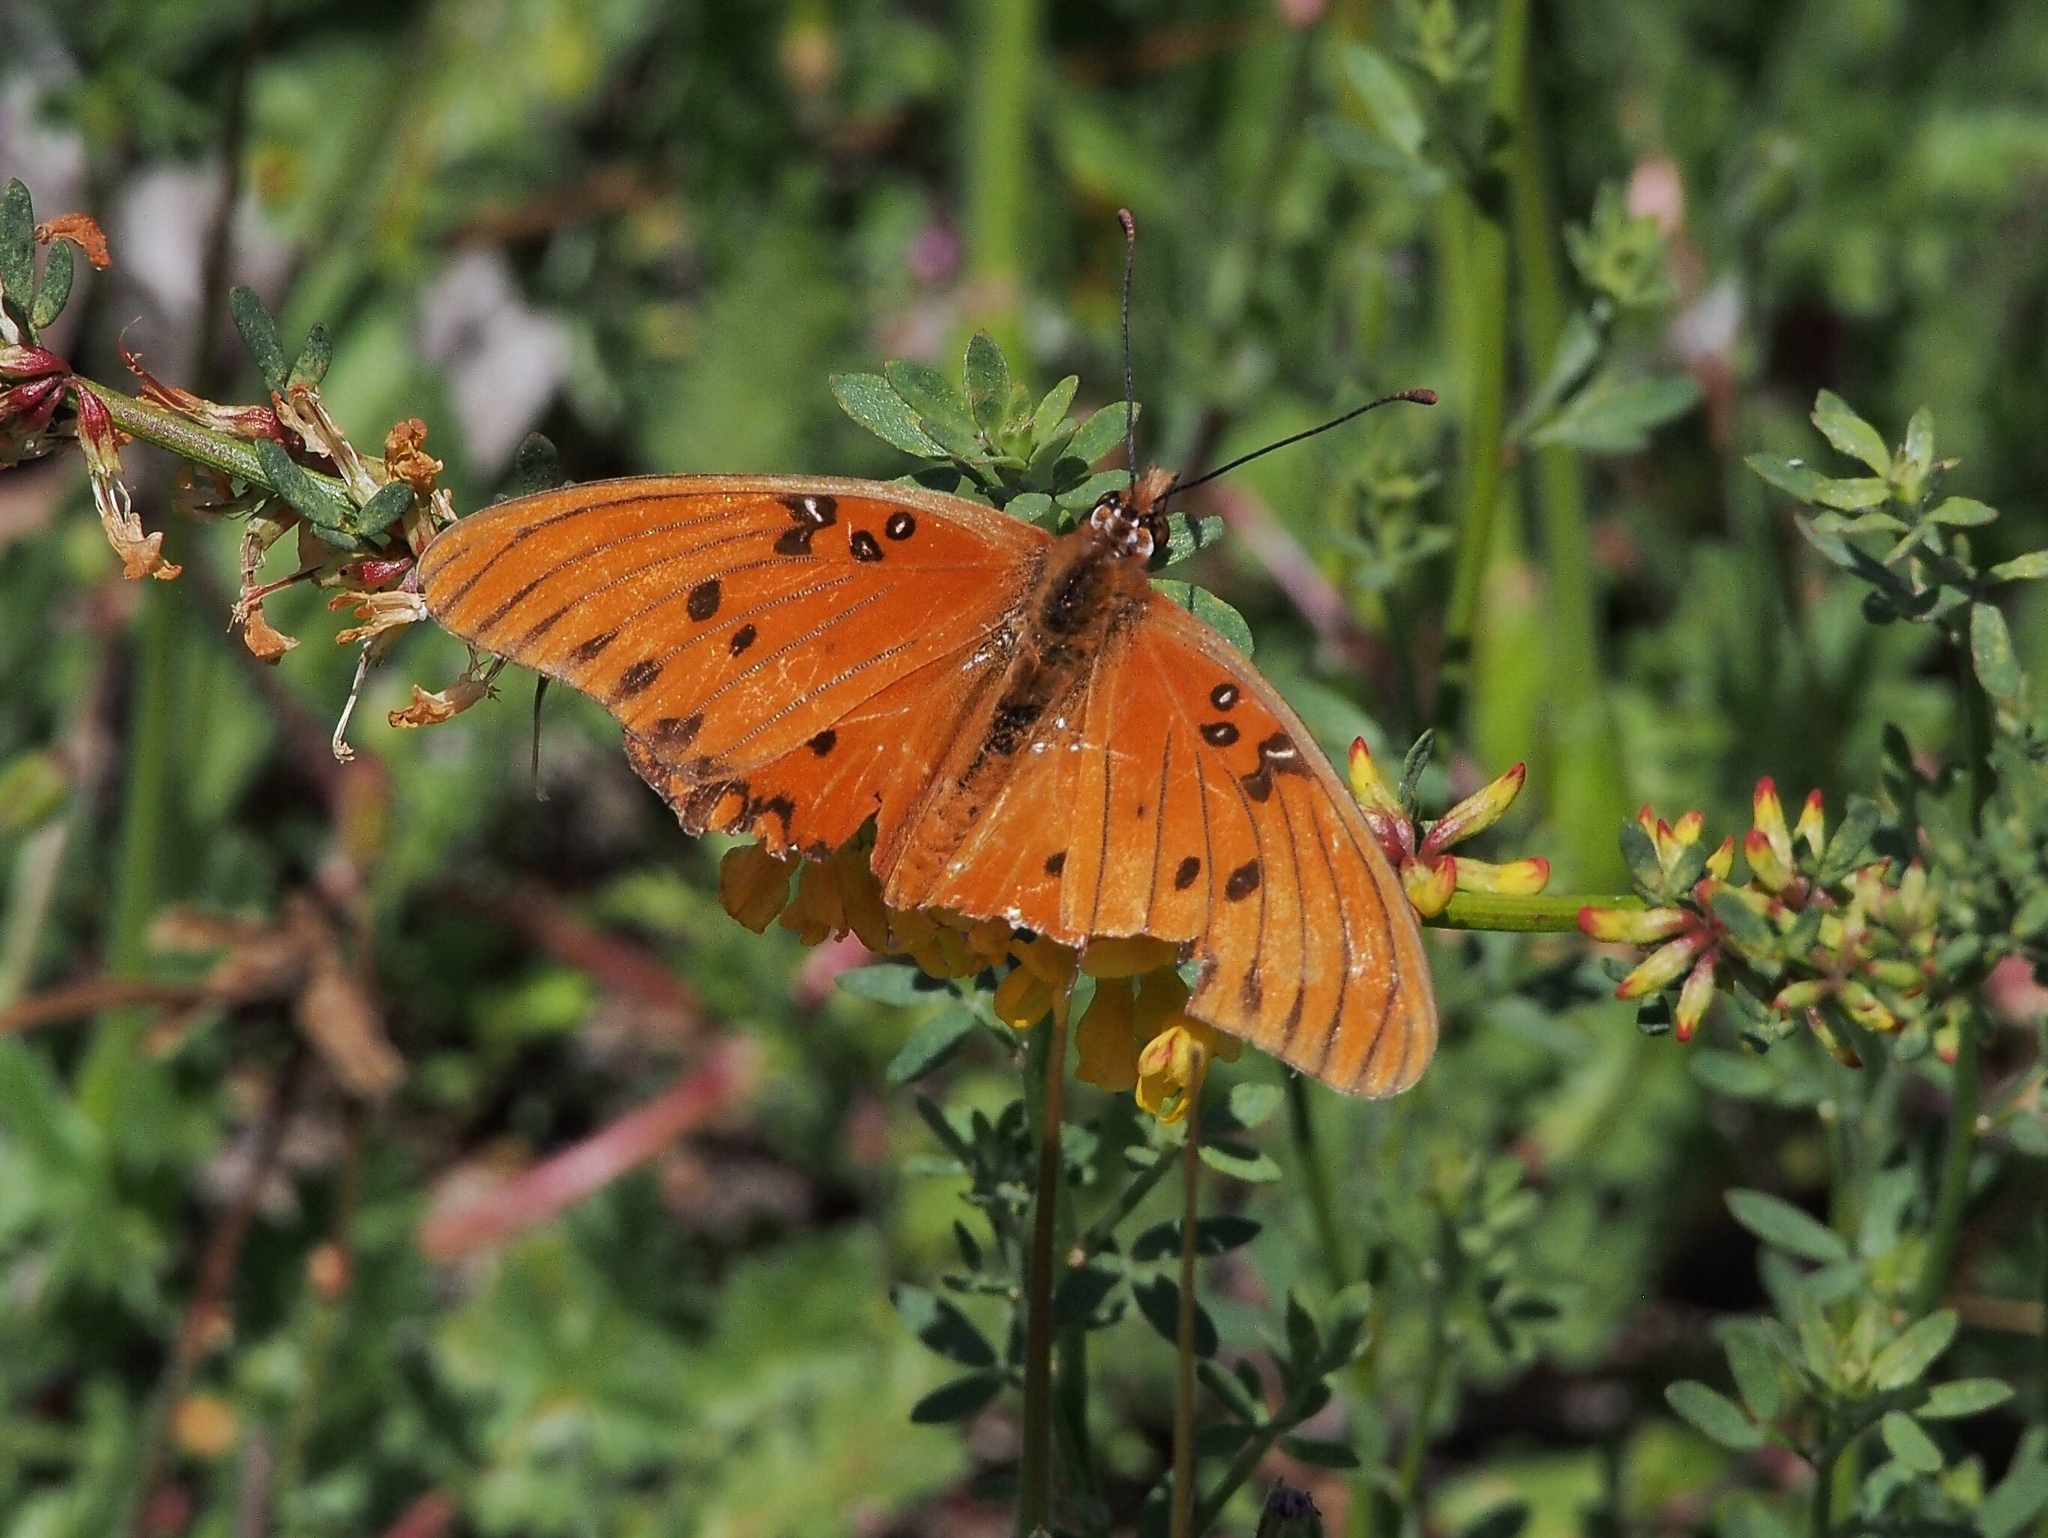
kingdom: Animalia
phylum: Arthropoda
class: Insecta
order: Lepidoptera
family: Nymphalidae
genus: Dione
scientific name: Dione vanillae
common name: Gulf fritillary
